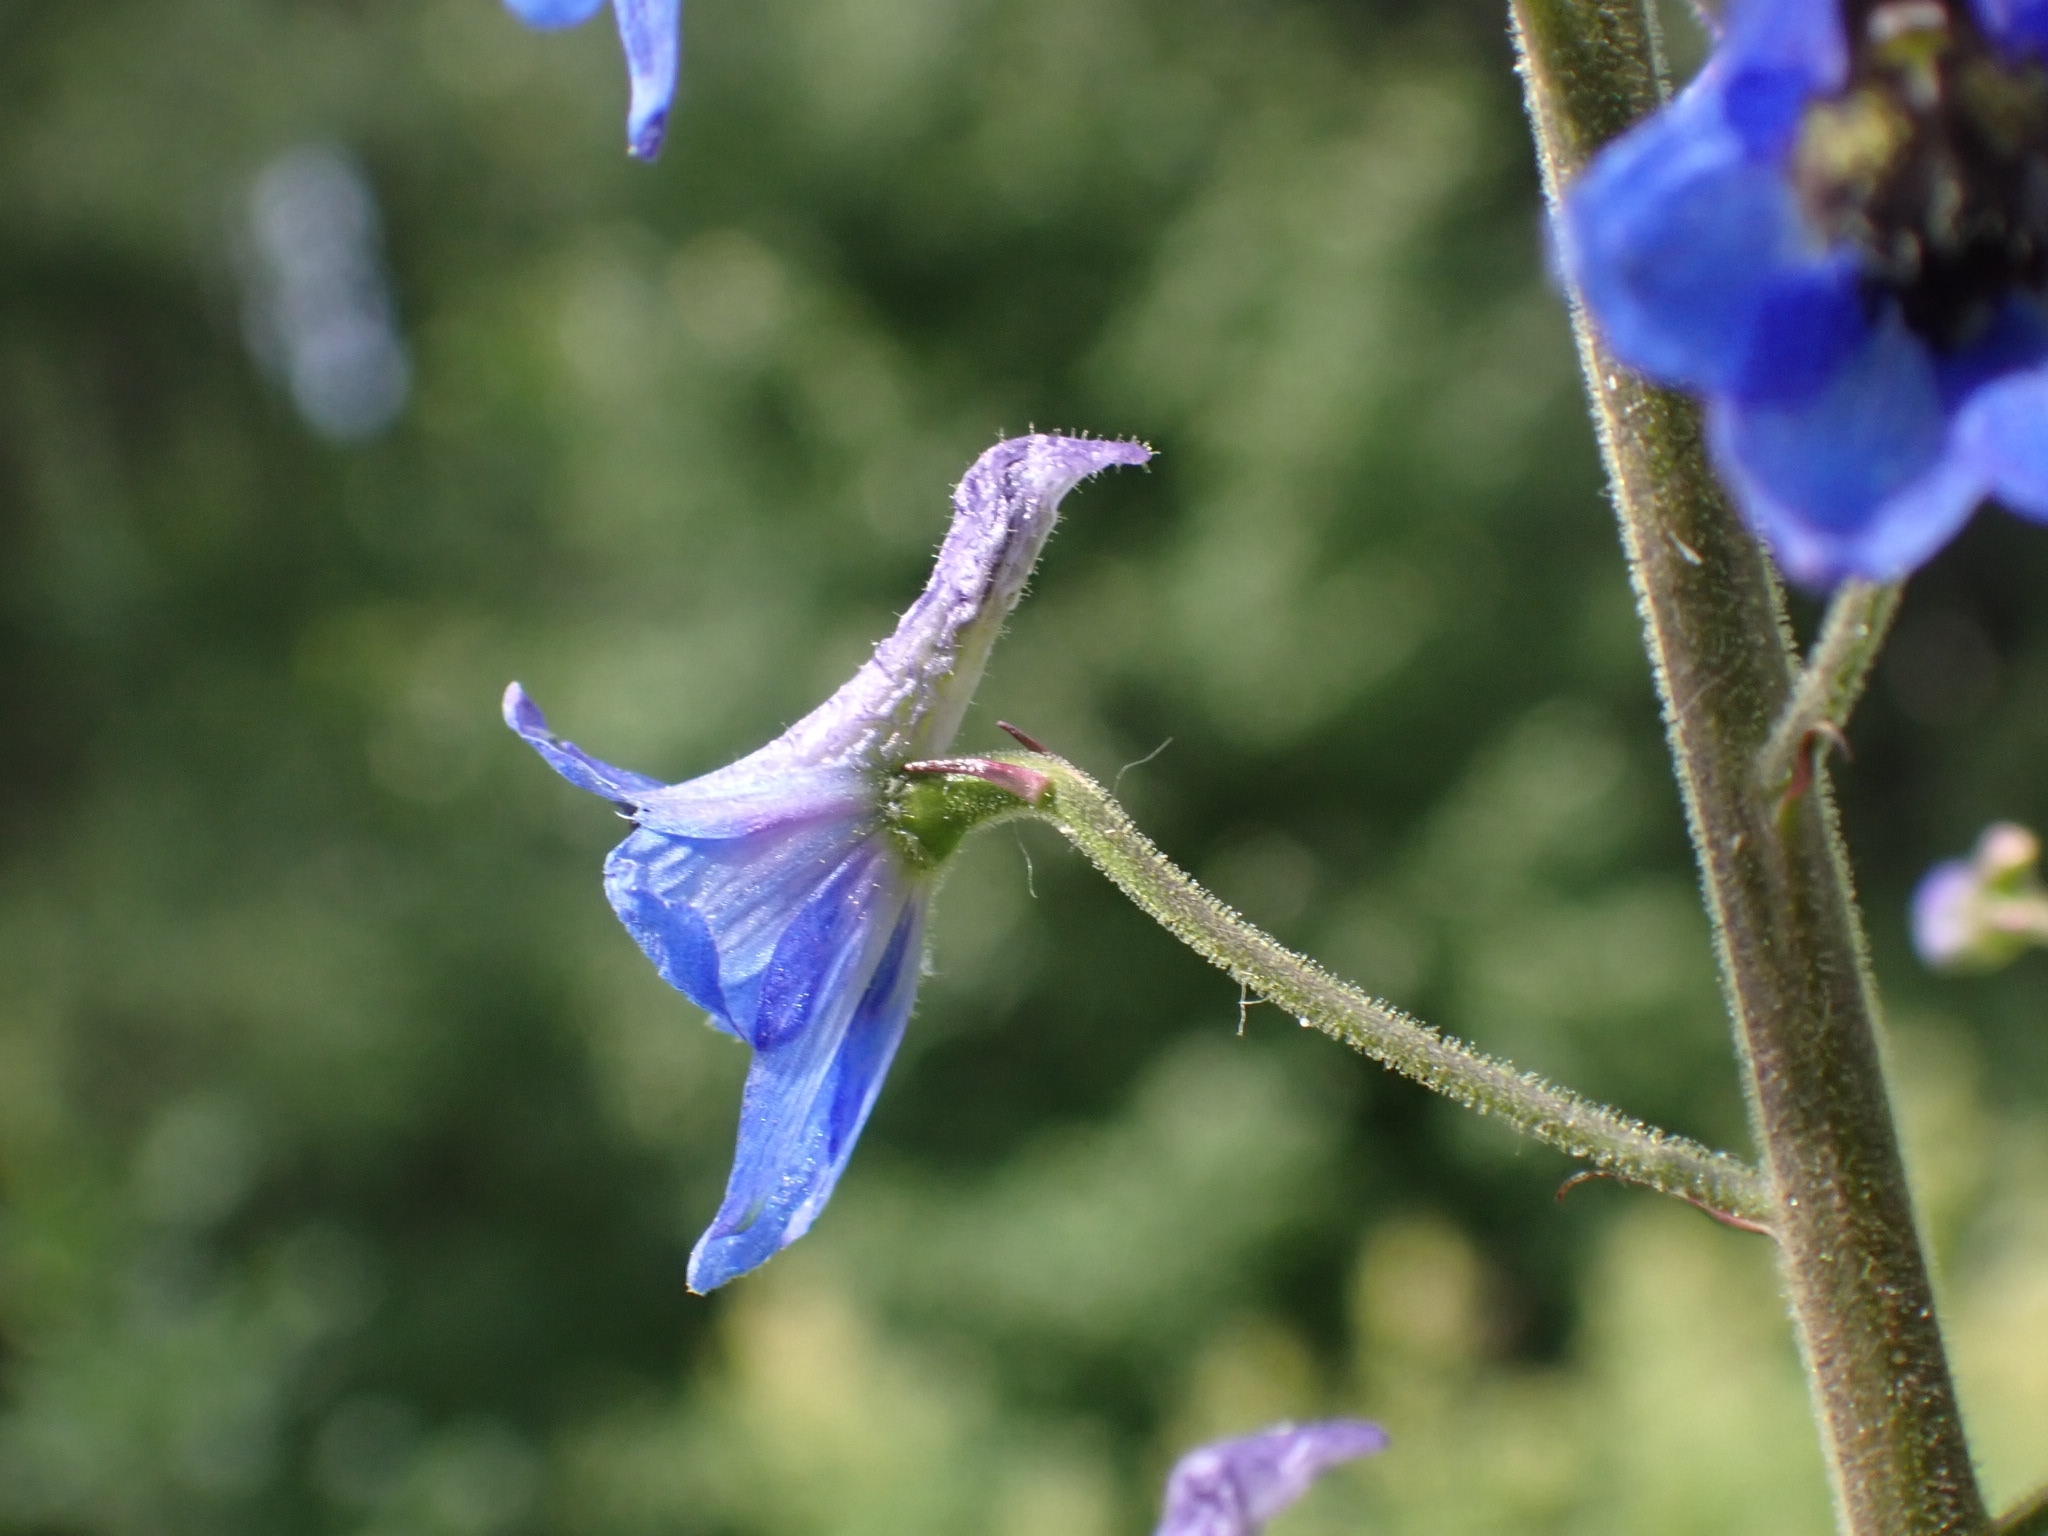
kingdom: Plantae
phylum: Tracheophyta
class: Magnoliopsida
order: Ranunculales
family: Ranunculaceae
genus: Delphinium
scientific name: Delphinium elatum
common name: Candle larkspur
